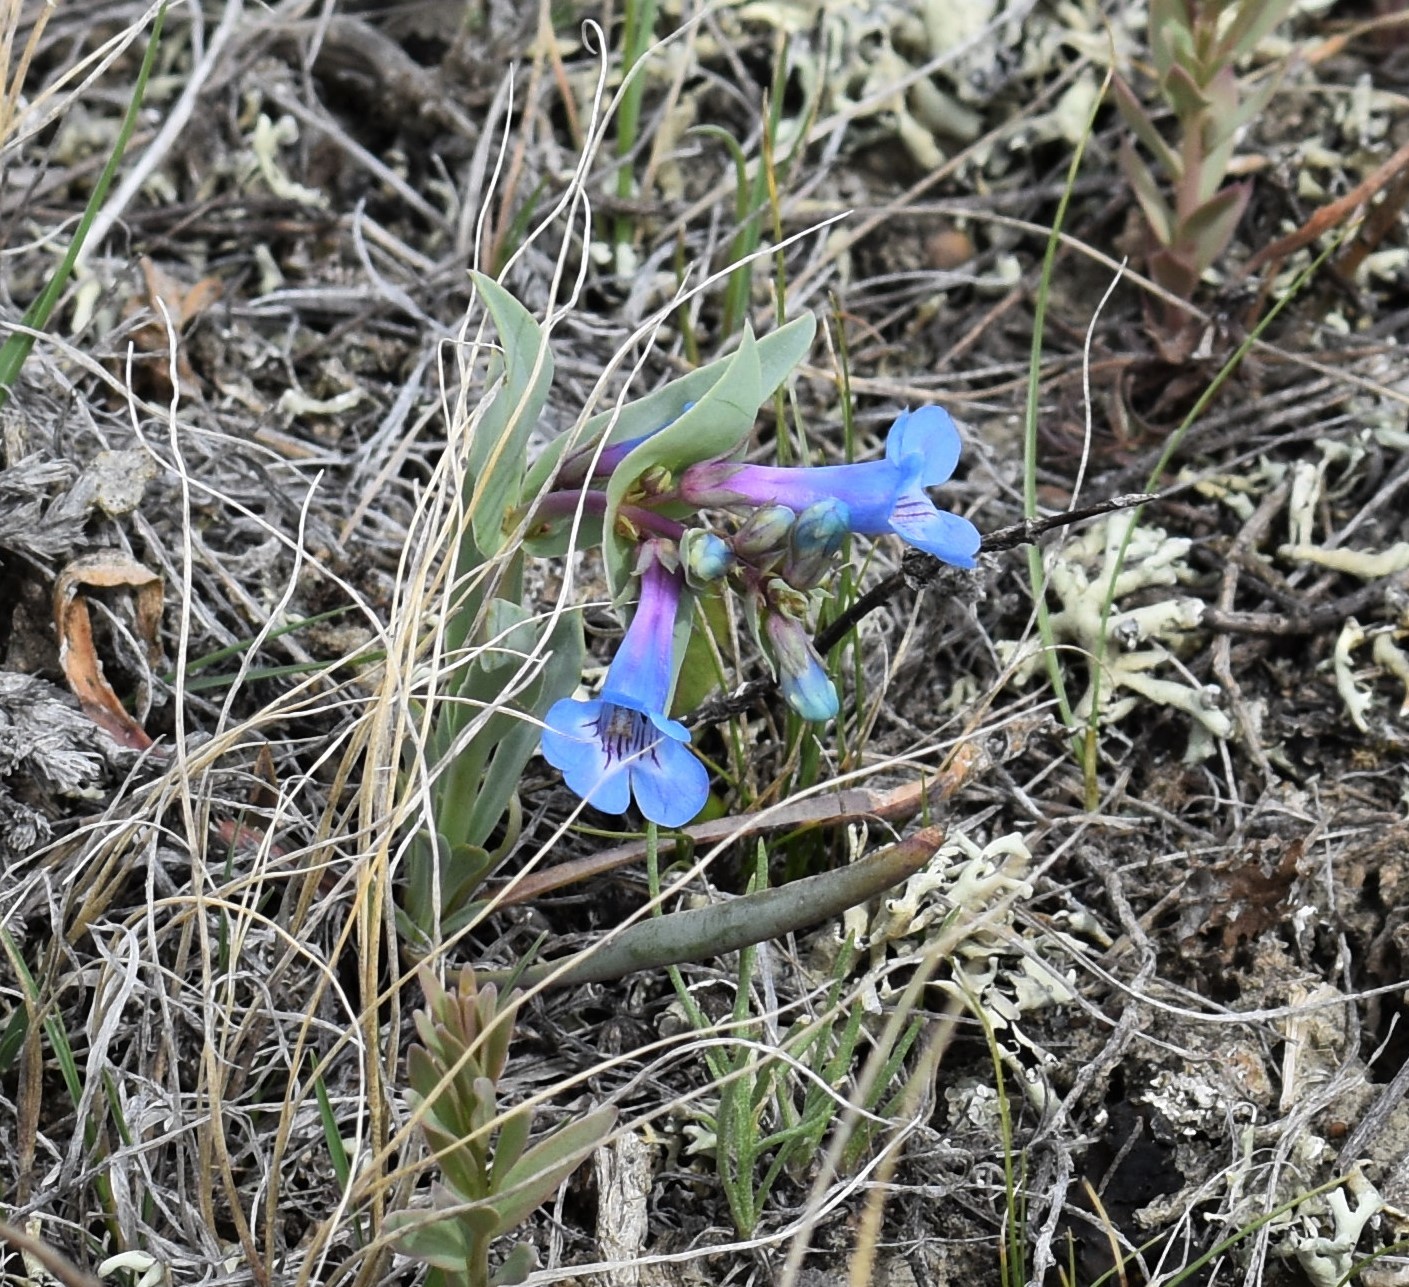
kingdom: Plantae
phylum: Tracheophyta
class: Magnoliopsida
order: Lamiales
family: Plantaginaceae
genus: Penstemon
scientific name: Penstemon nitidus
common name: Shining penstemon
